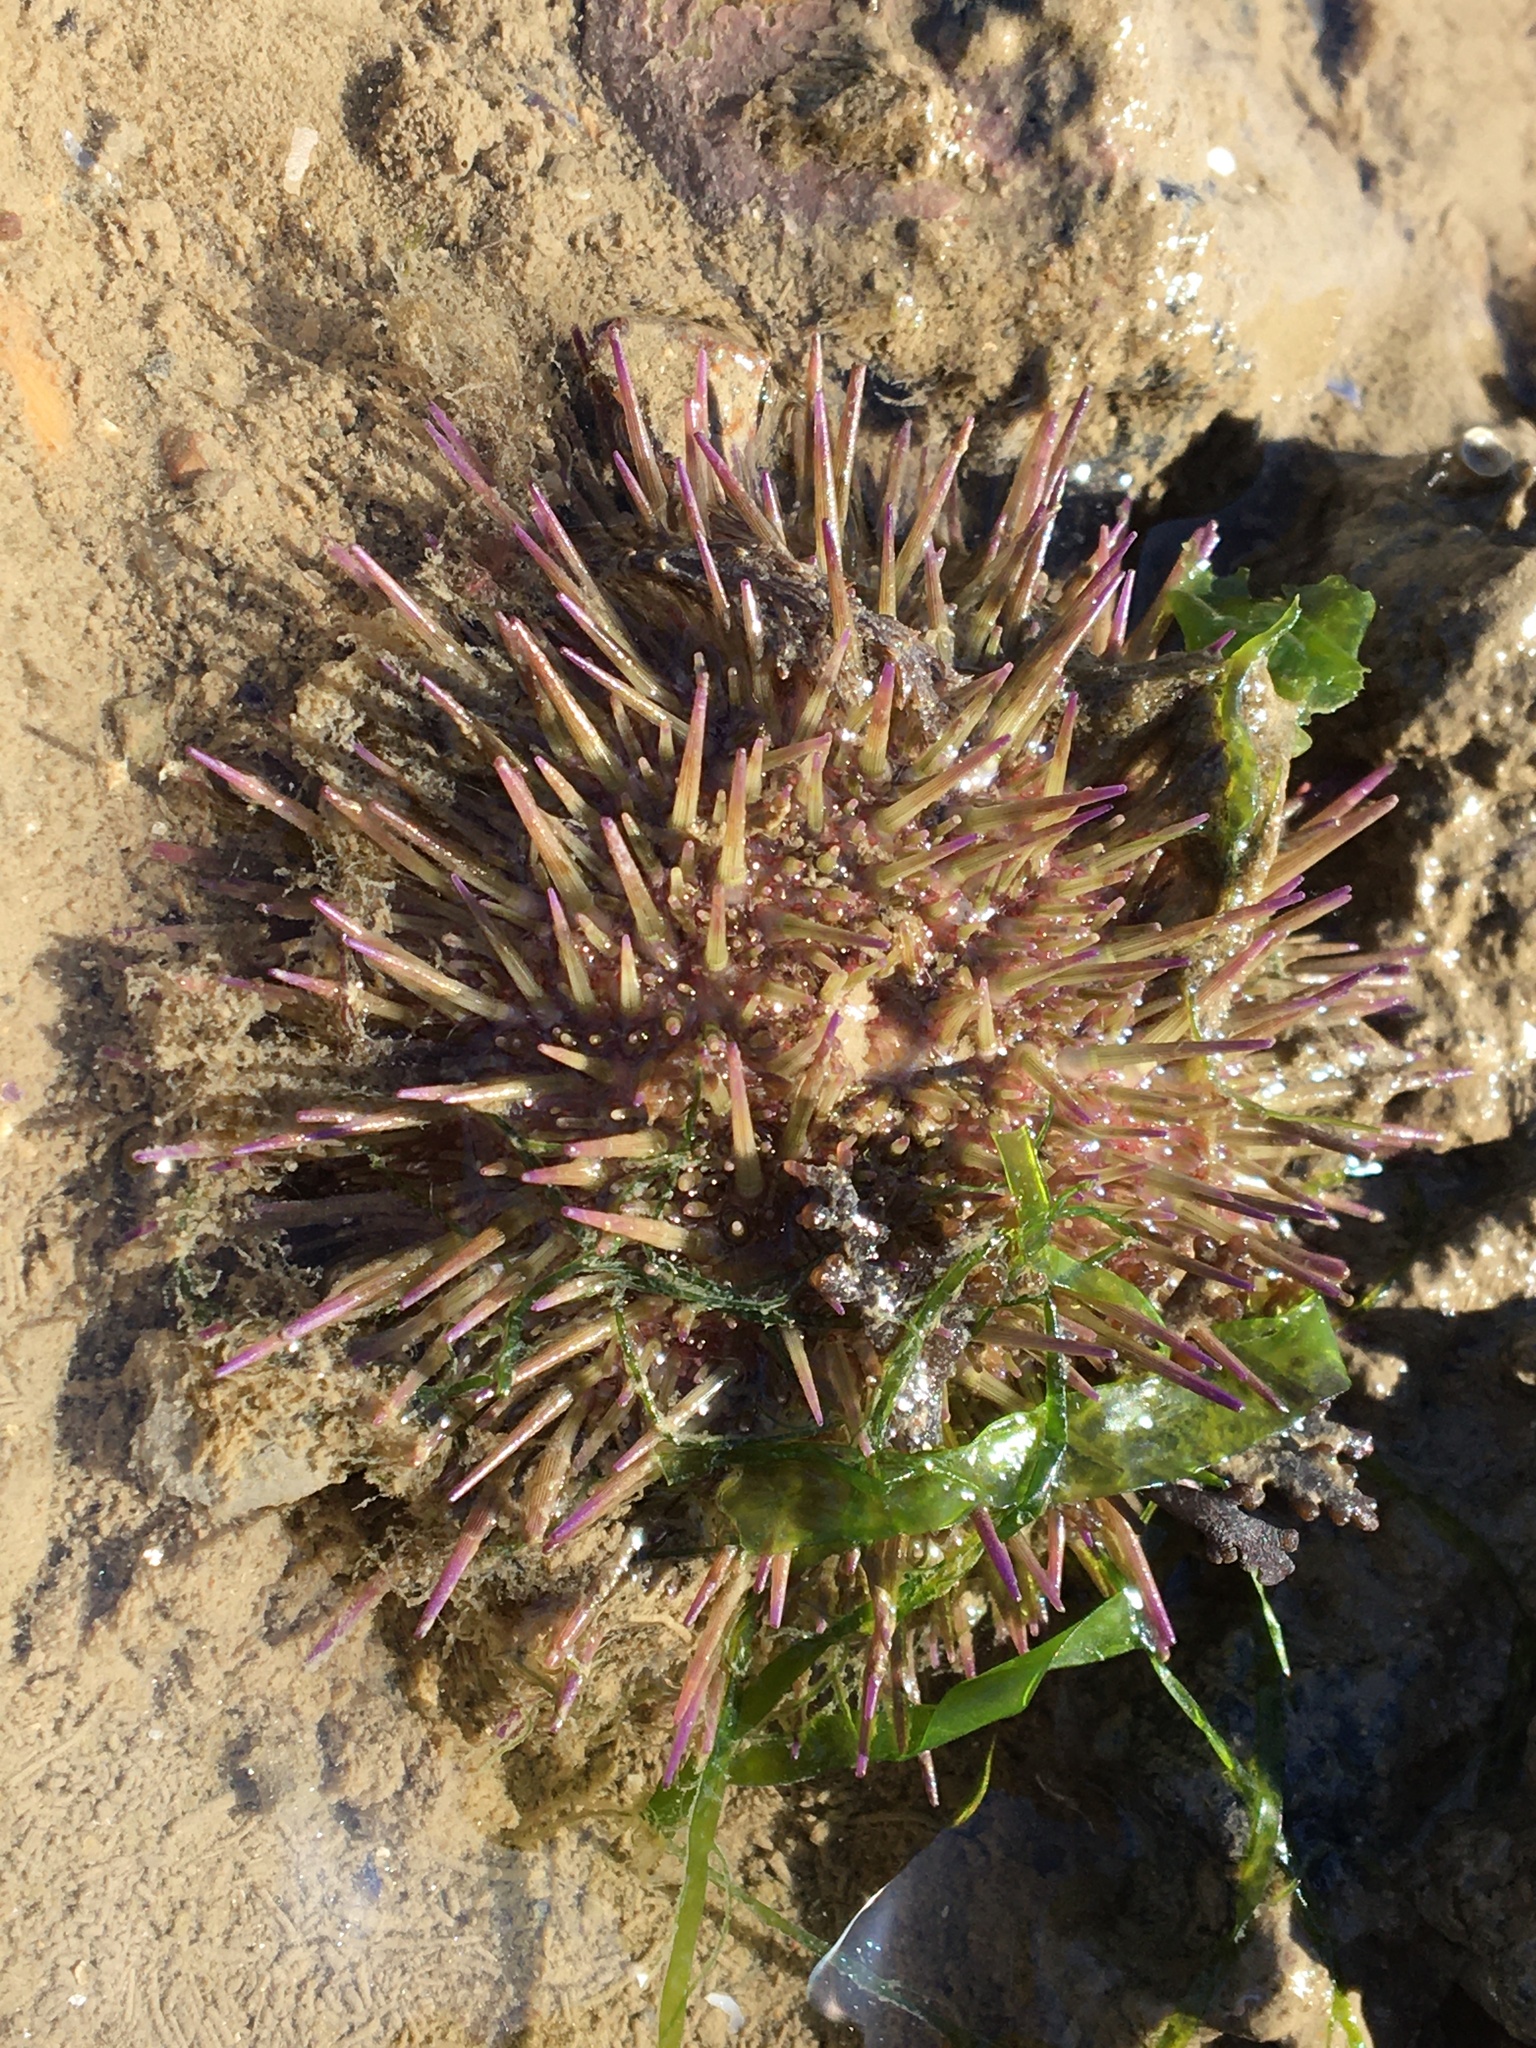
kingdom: Animalia
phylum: Echinodermata
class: Echinoidea
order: Camarodonta
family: Parechinidae
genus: Psammechinus
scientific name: Psammechinus miliaris
